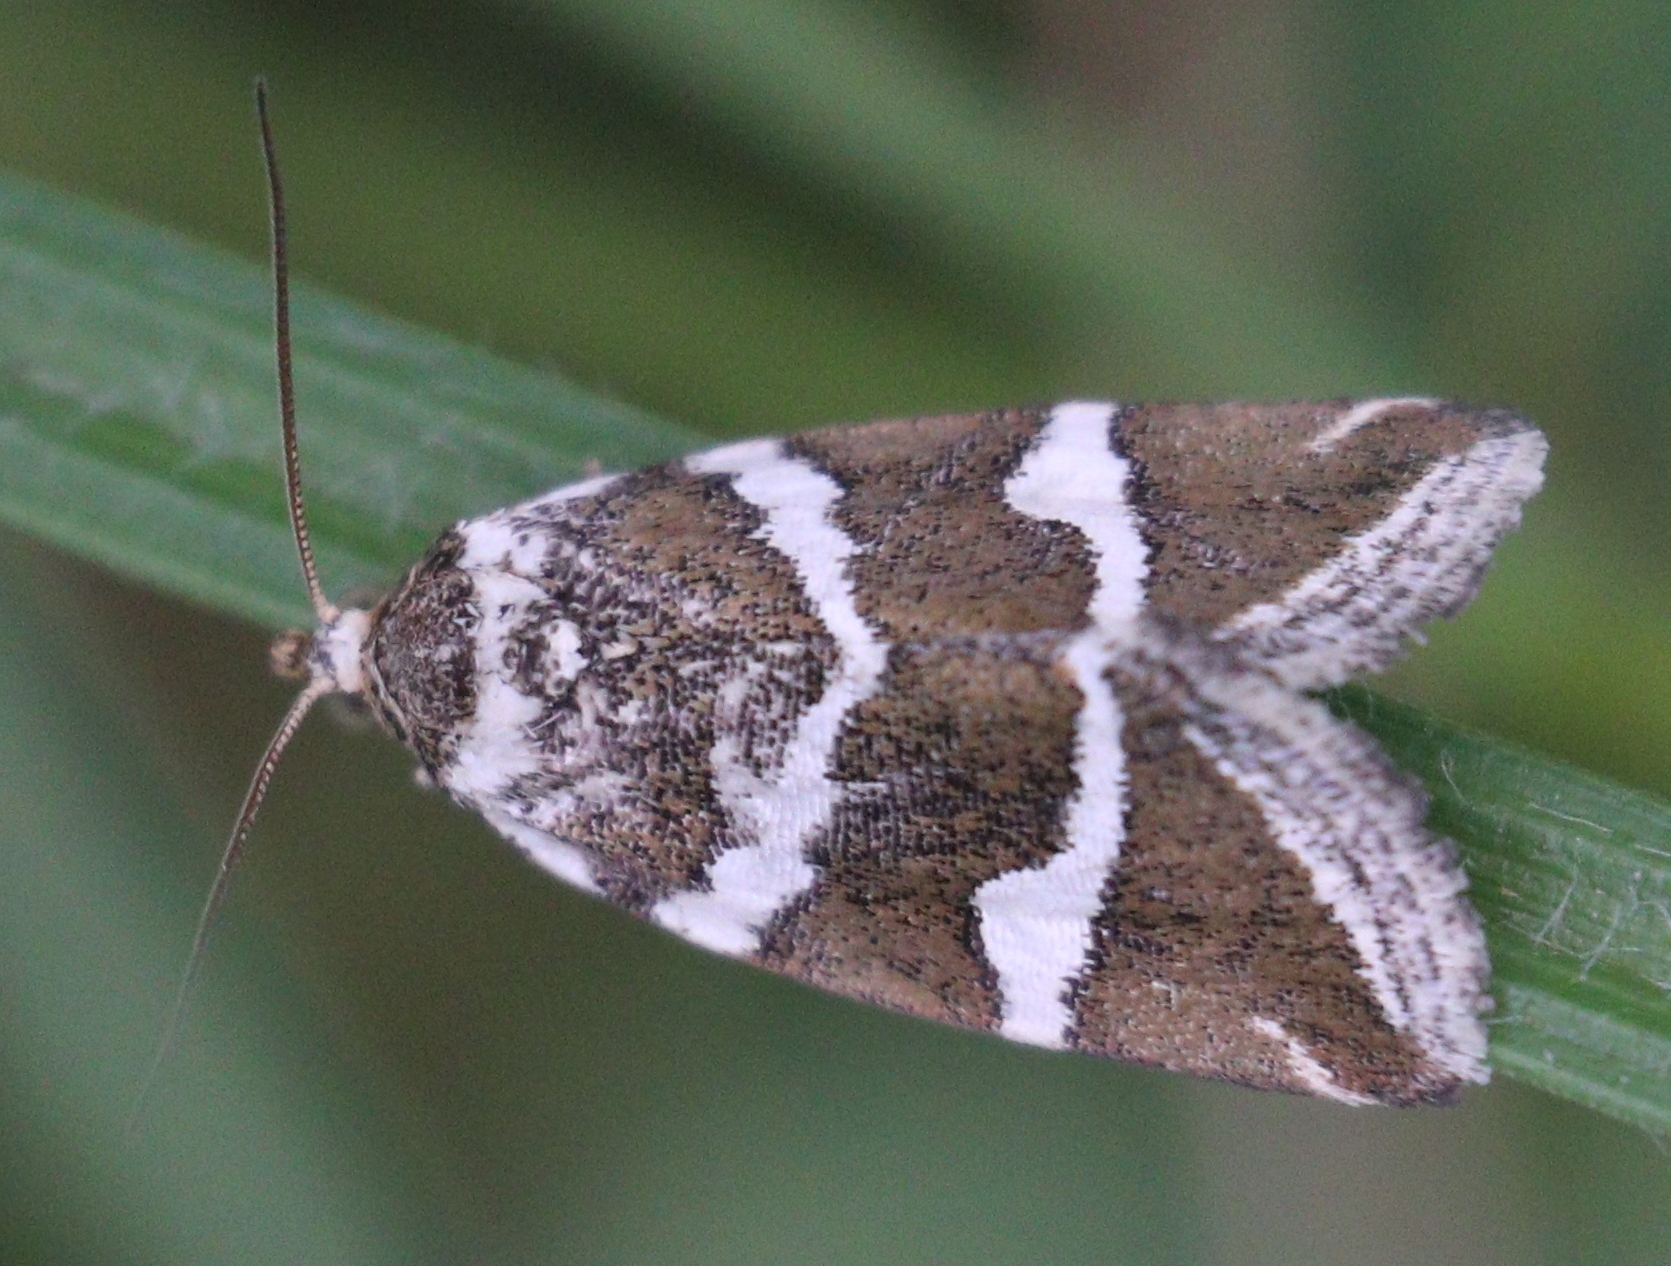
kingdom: Animalia
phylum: Arthropoda
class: Insecta
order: Lepidoptera
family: Noctuidae
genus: Deltote
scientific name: Deltote bankiana
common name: Silver barred
